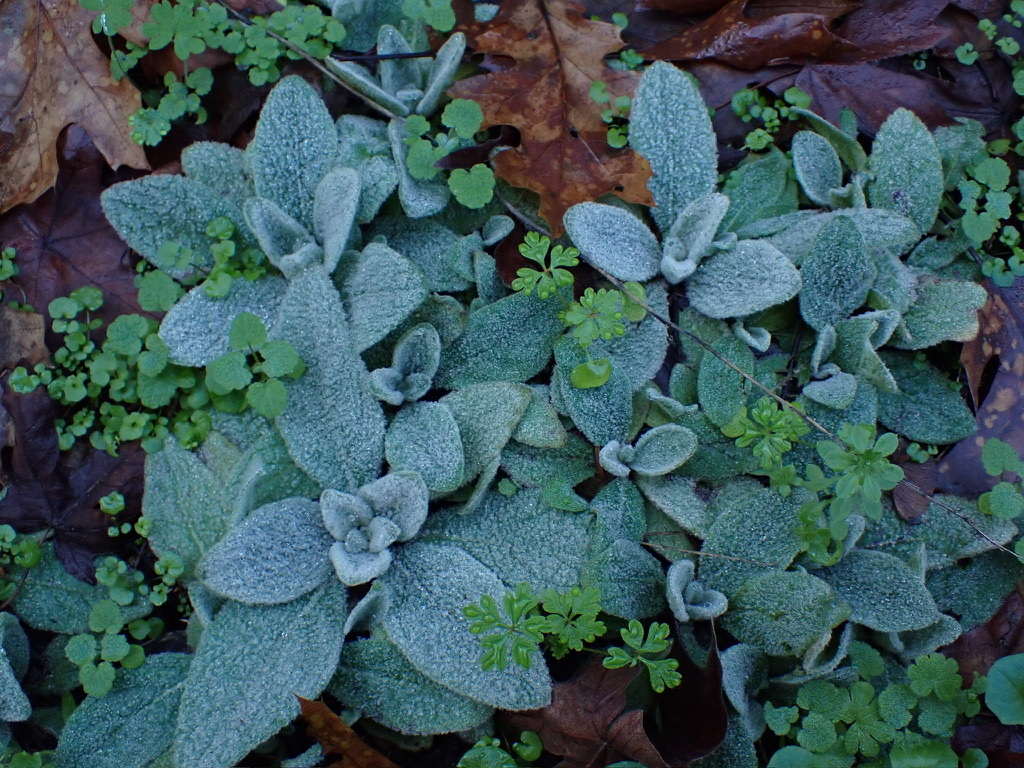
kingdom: Plantae
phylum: Tracheophyta
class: Magnoliopsida
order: Lamiales
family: Scrophulariaceae
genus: Verbascum
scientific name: Verbascum thapsus
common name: Common mullein
